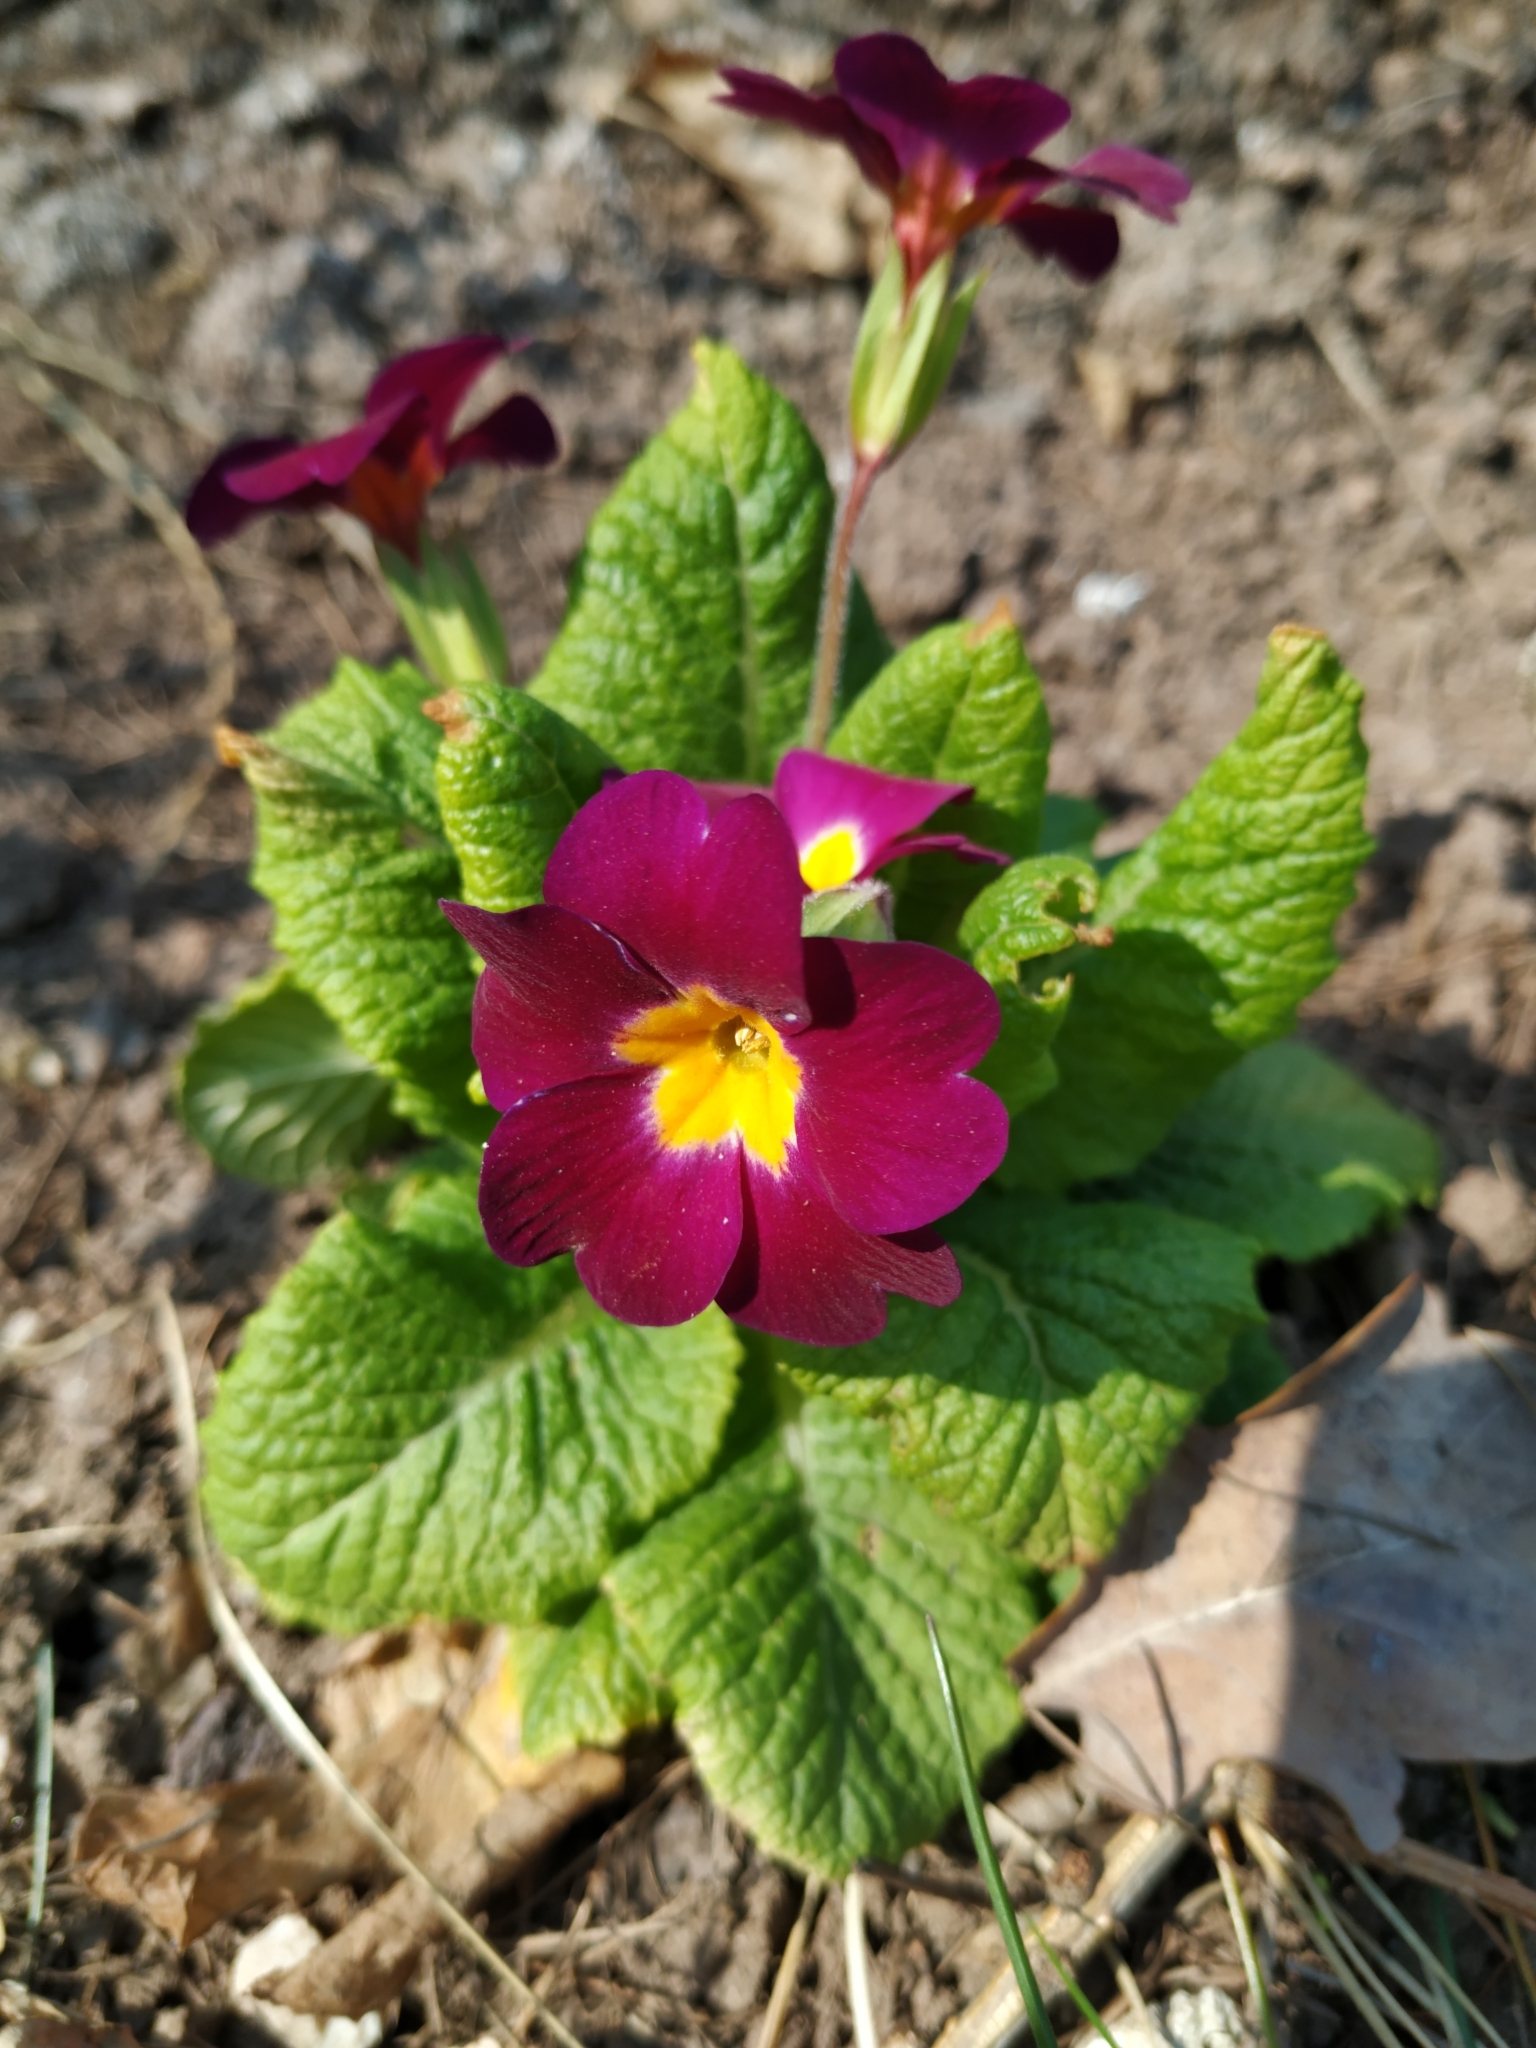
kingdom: Plantae
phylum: Tracheophyta
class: Magnoliopsida
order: Ericales
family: Primulaceae
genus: Primula
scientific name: Primula vulgaris
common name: Primrose
